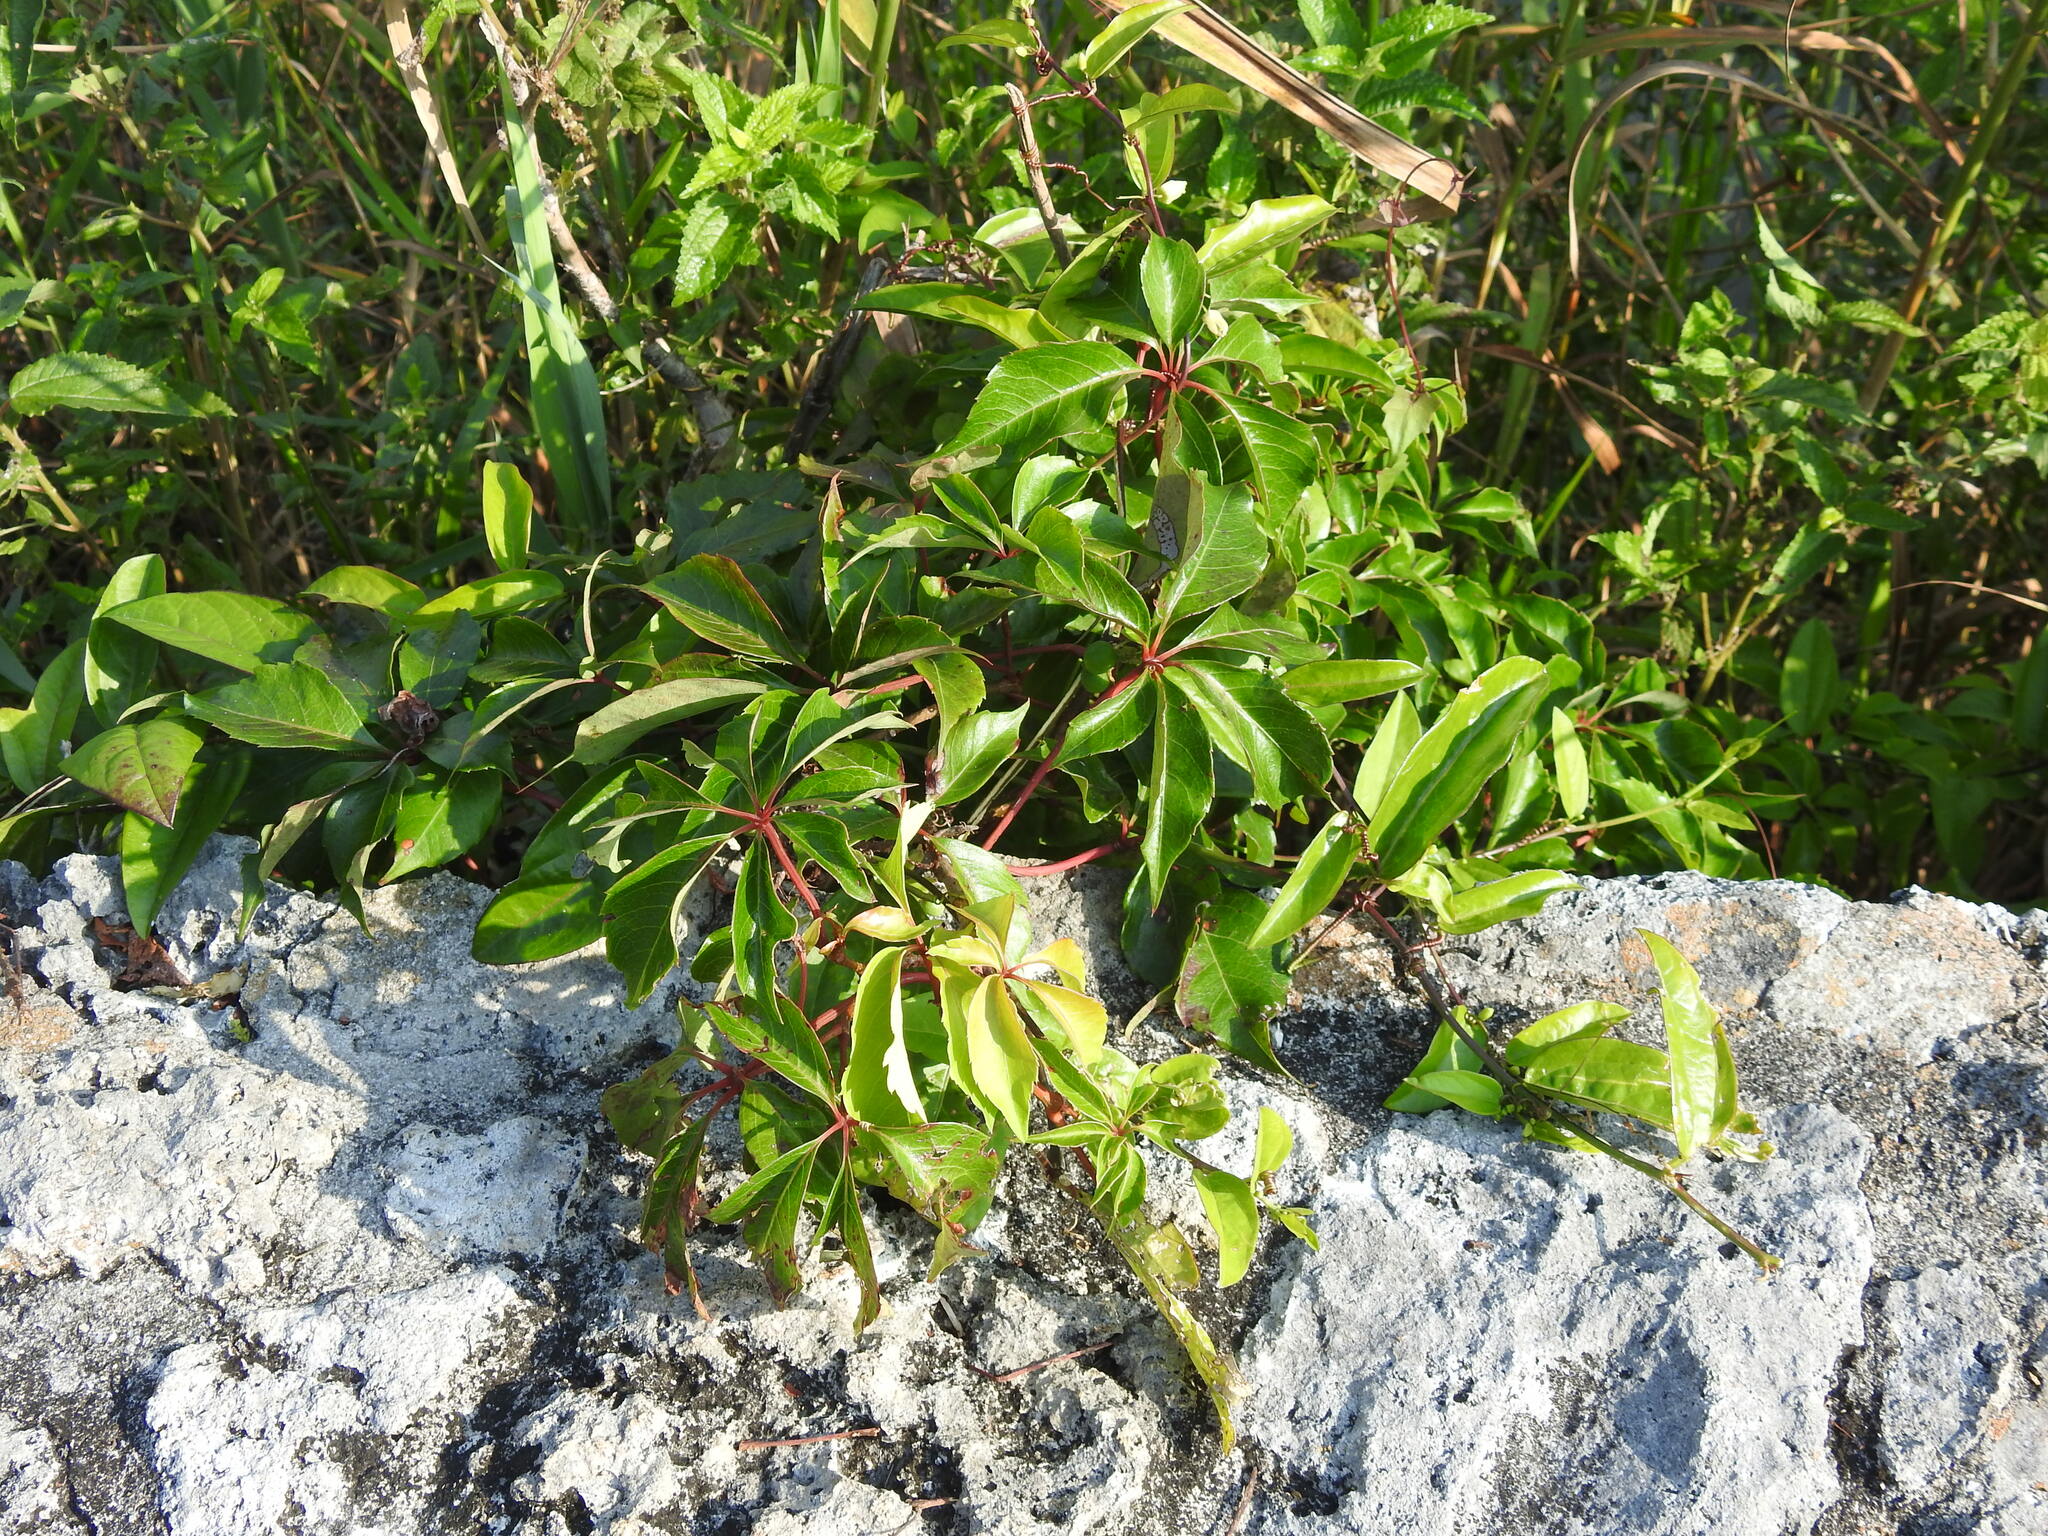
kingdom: Plantae
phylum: Tracheophyta
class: Magnoliopsida
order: Vitales
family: Vitaceae
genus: Parthenocissus
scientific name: Parthenocissus quinquefolia
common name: Virginia-creeper
